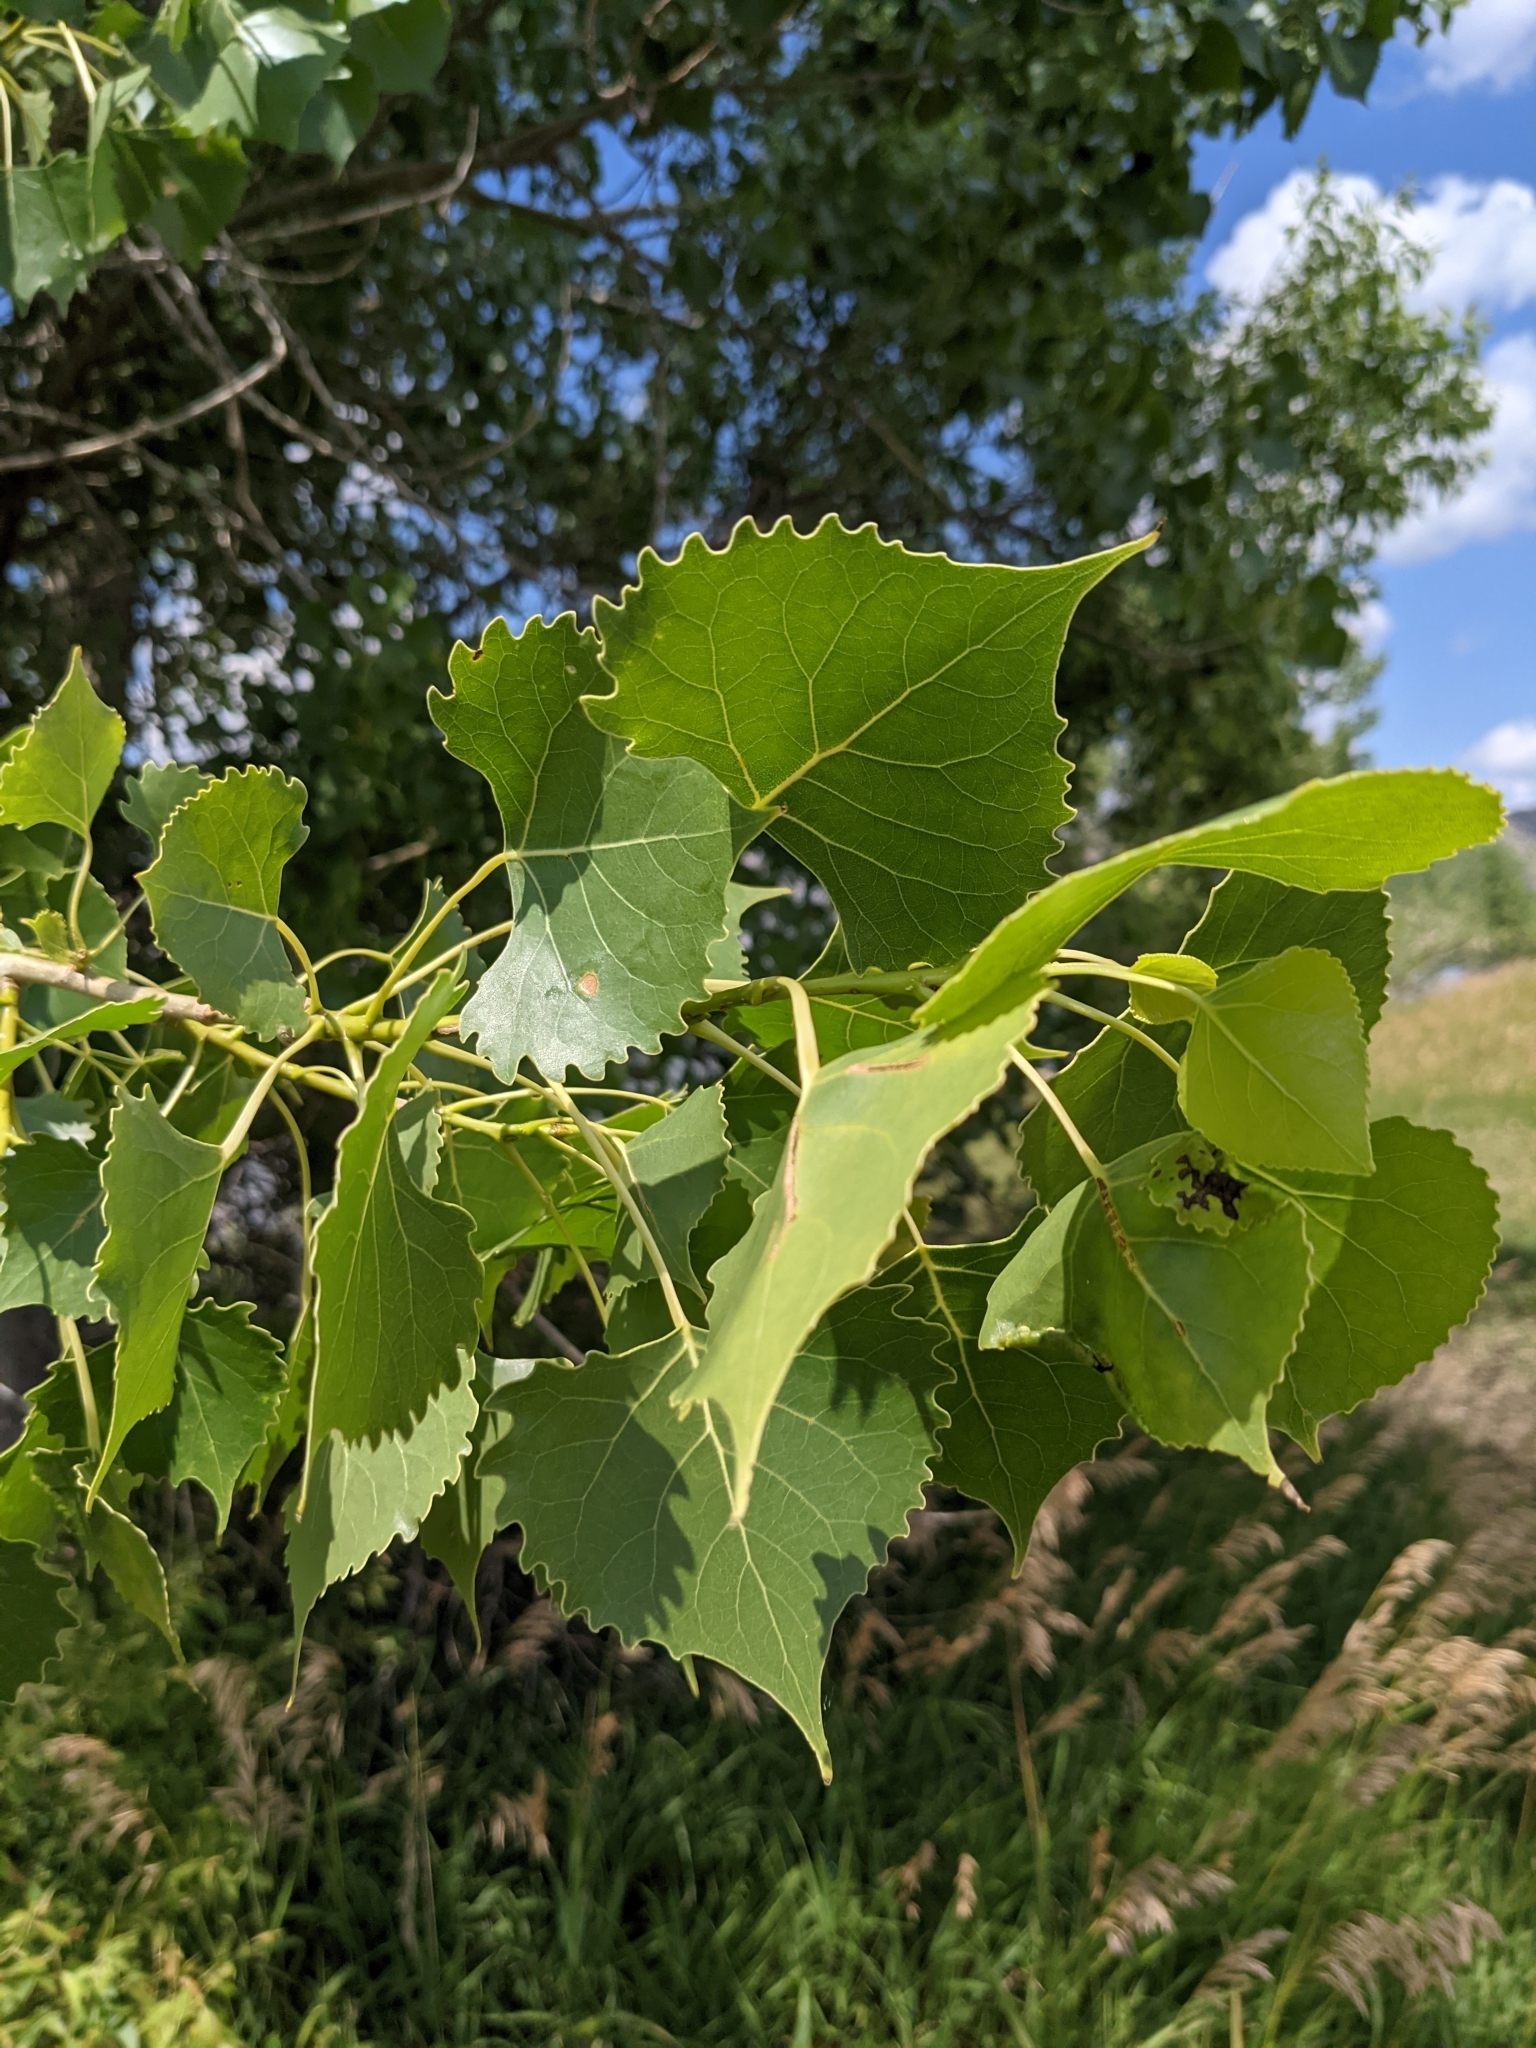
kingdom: Plantae
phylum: Tracheophyta
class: Magnoliopsida
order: Malpighiales
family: Salicaceae
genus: Populus
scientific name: Populus deltoides
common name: Eastern cottonwood
